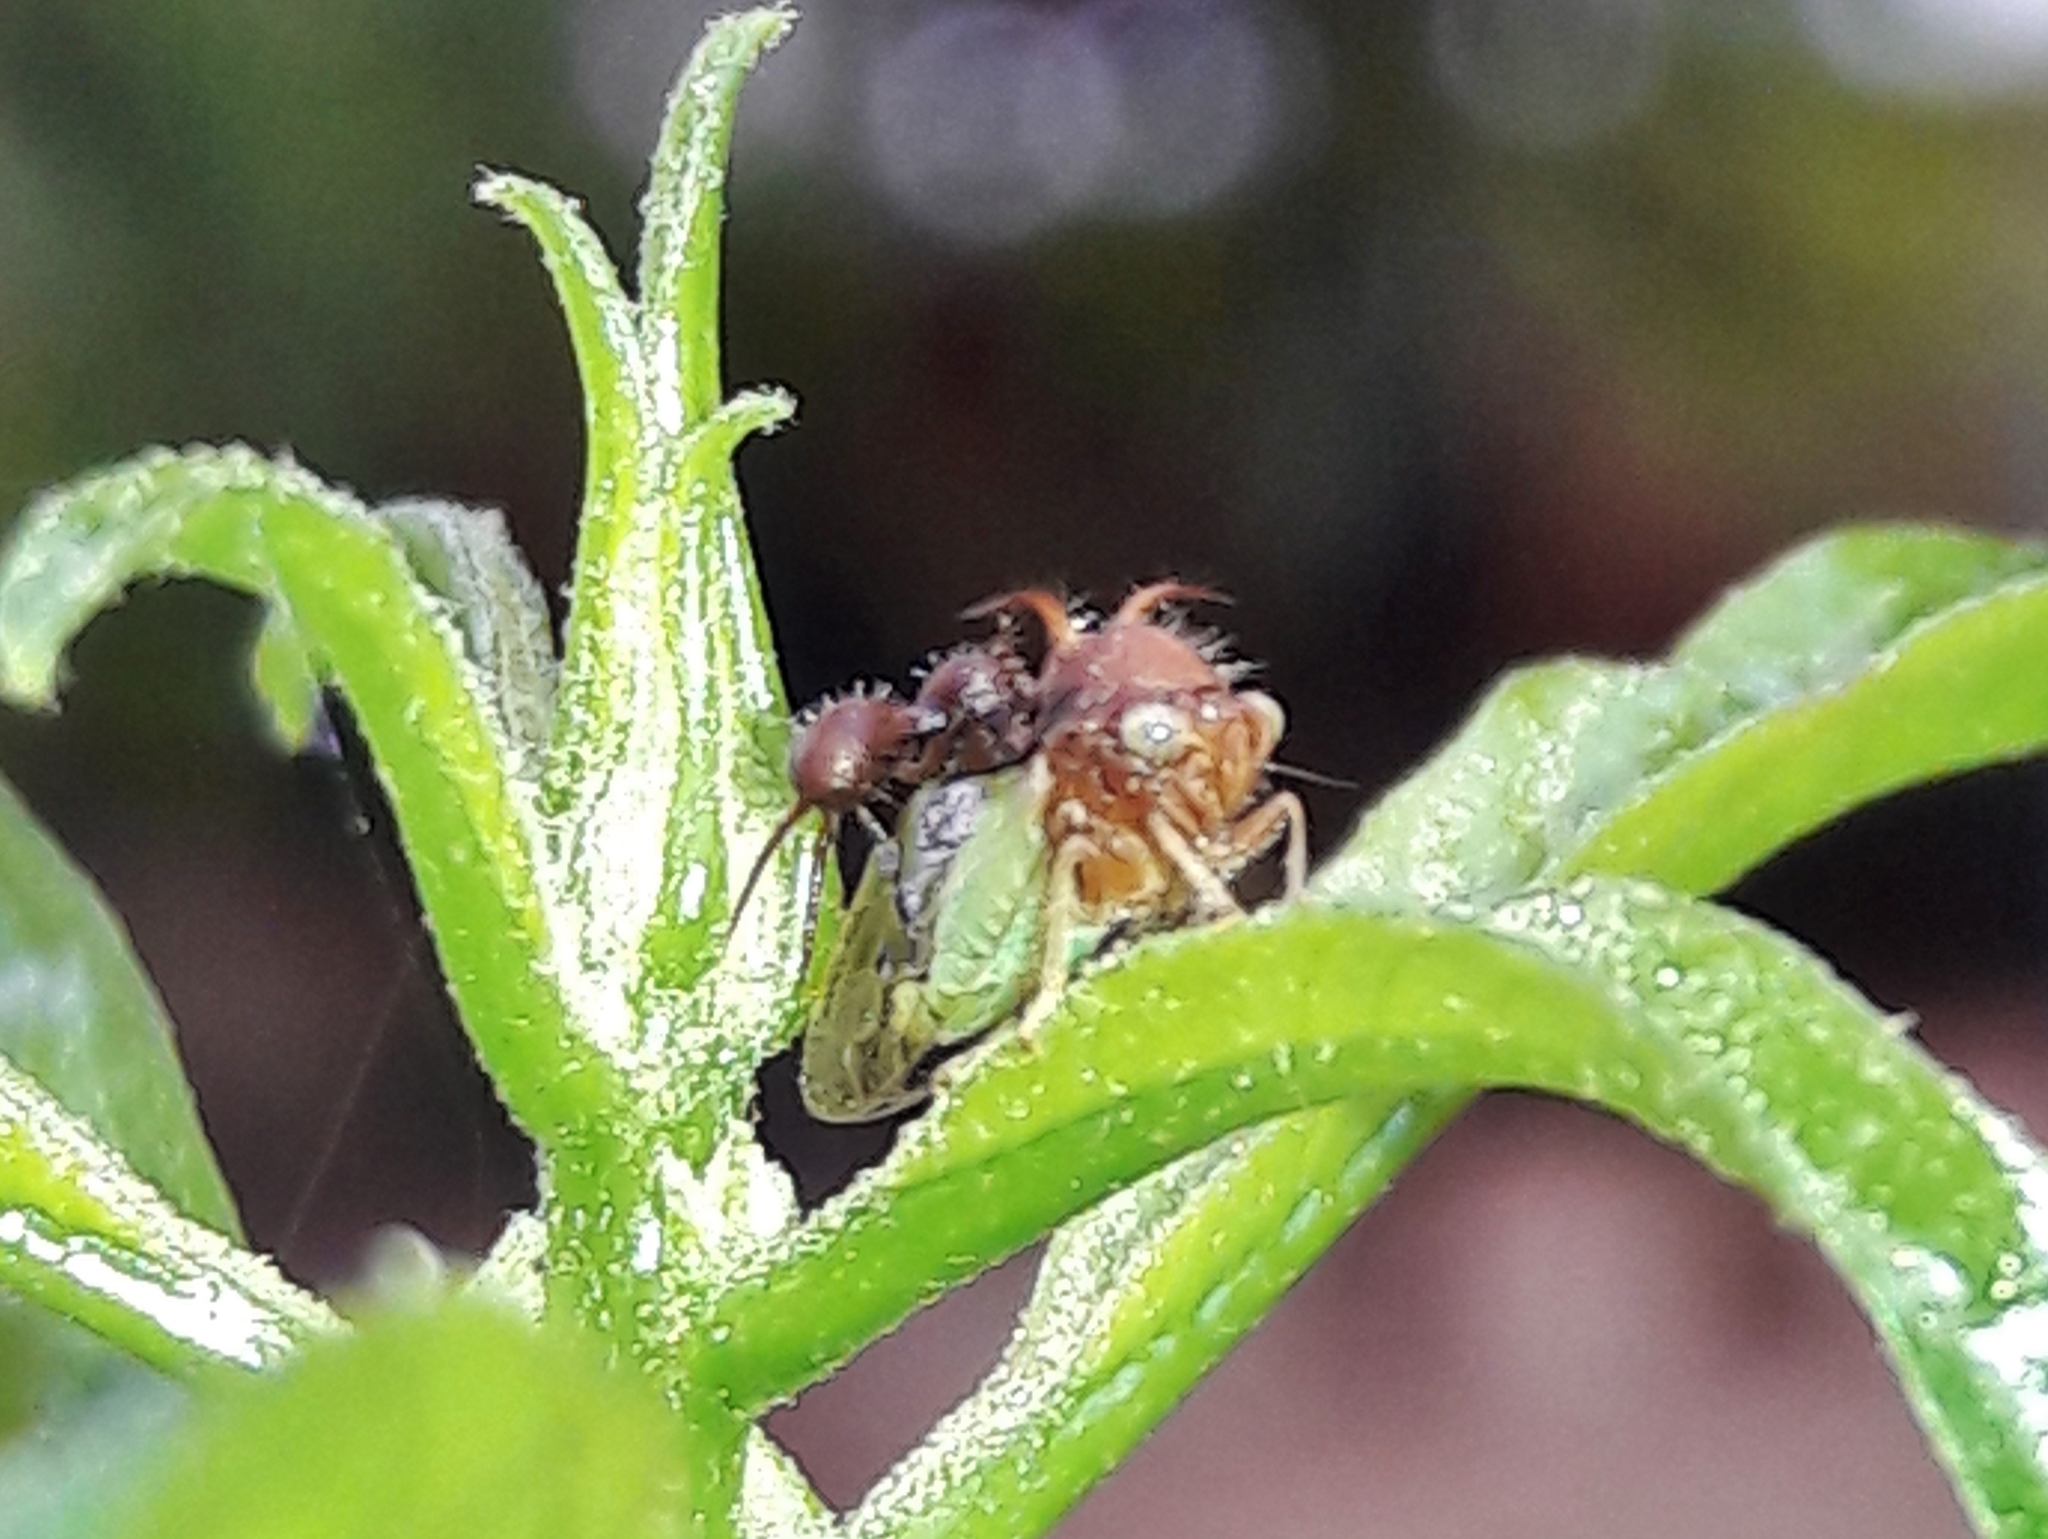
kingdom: Animalia
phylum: Arthropoda
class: Insecta
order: Hemiptera
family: Membracidae
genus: Cyphonia
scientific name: Cyphonia clavata
